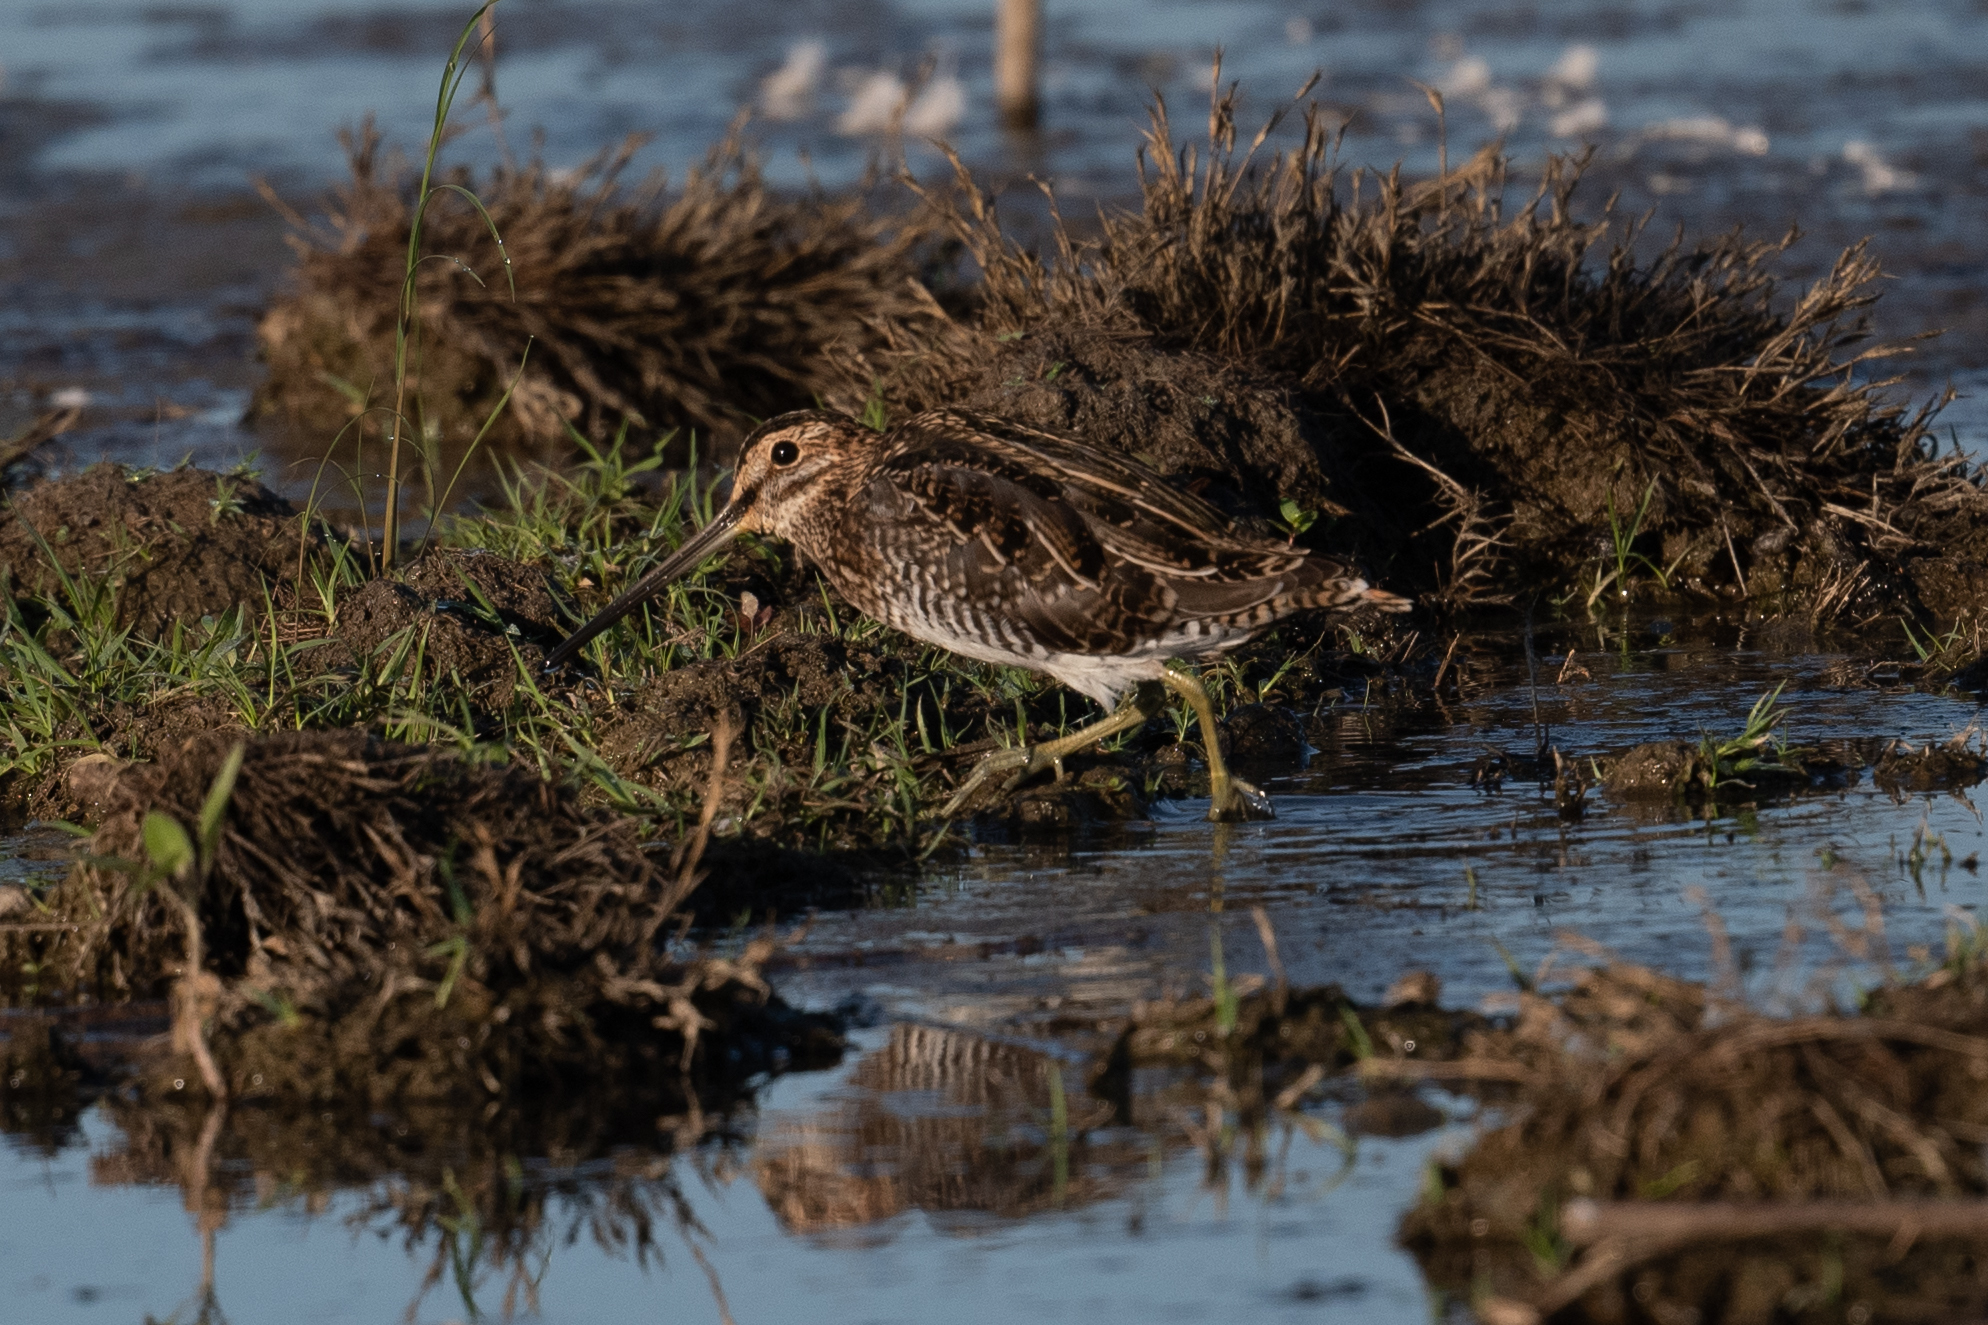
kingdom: Animalia
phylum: Chordata
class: Aves
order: Charadriiformes
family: Scolopacidae
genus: Gallinago
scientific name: Gallinago delicata
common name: Wilson's snipe
